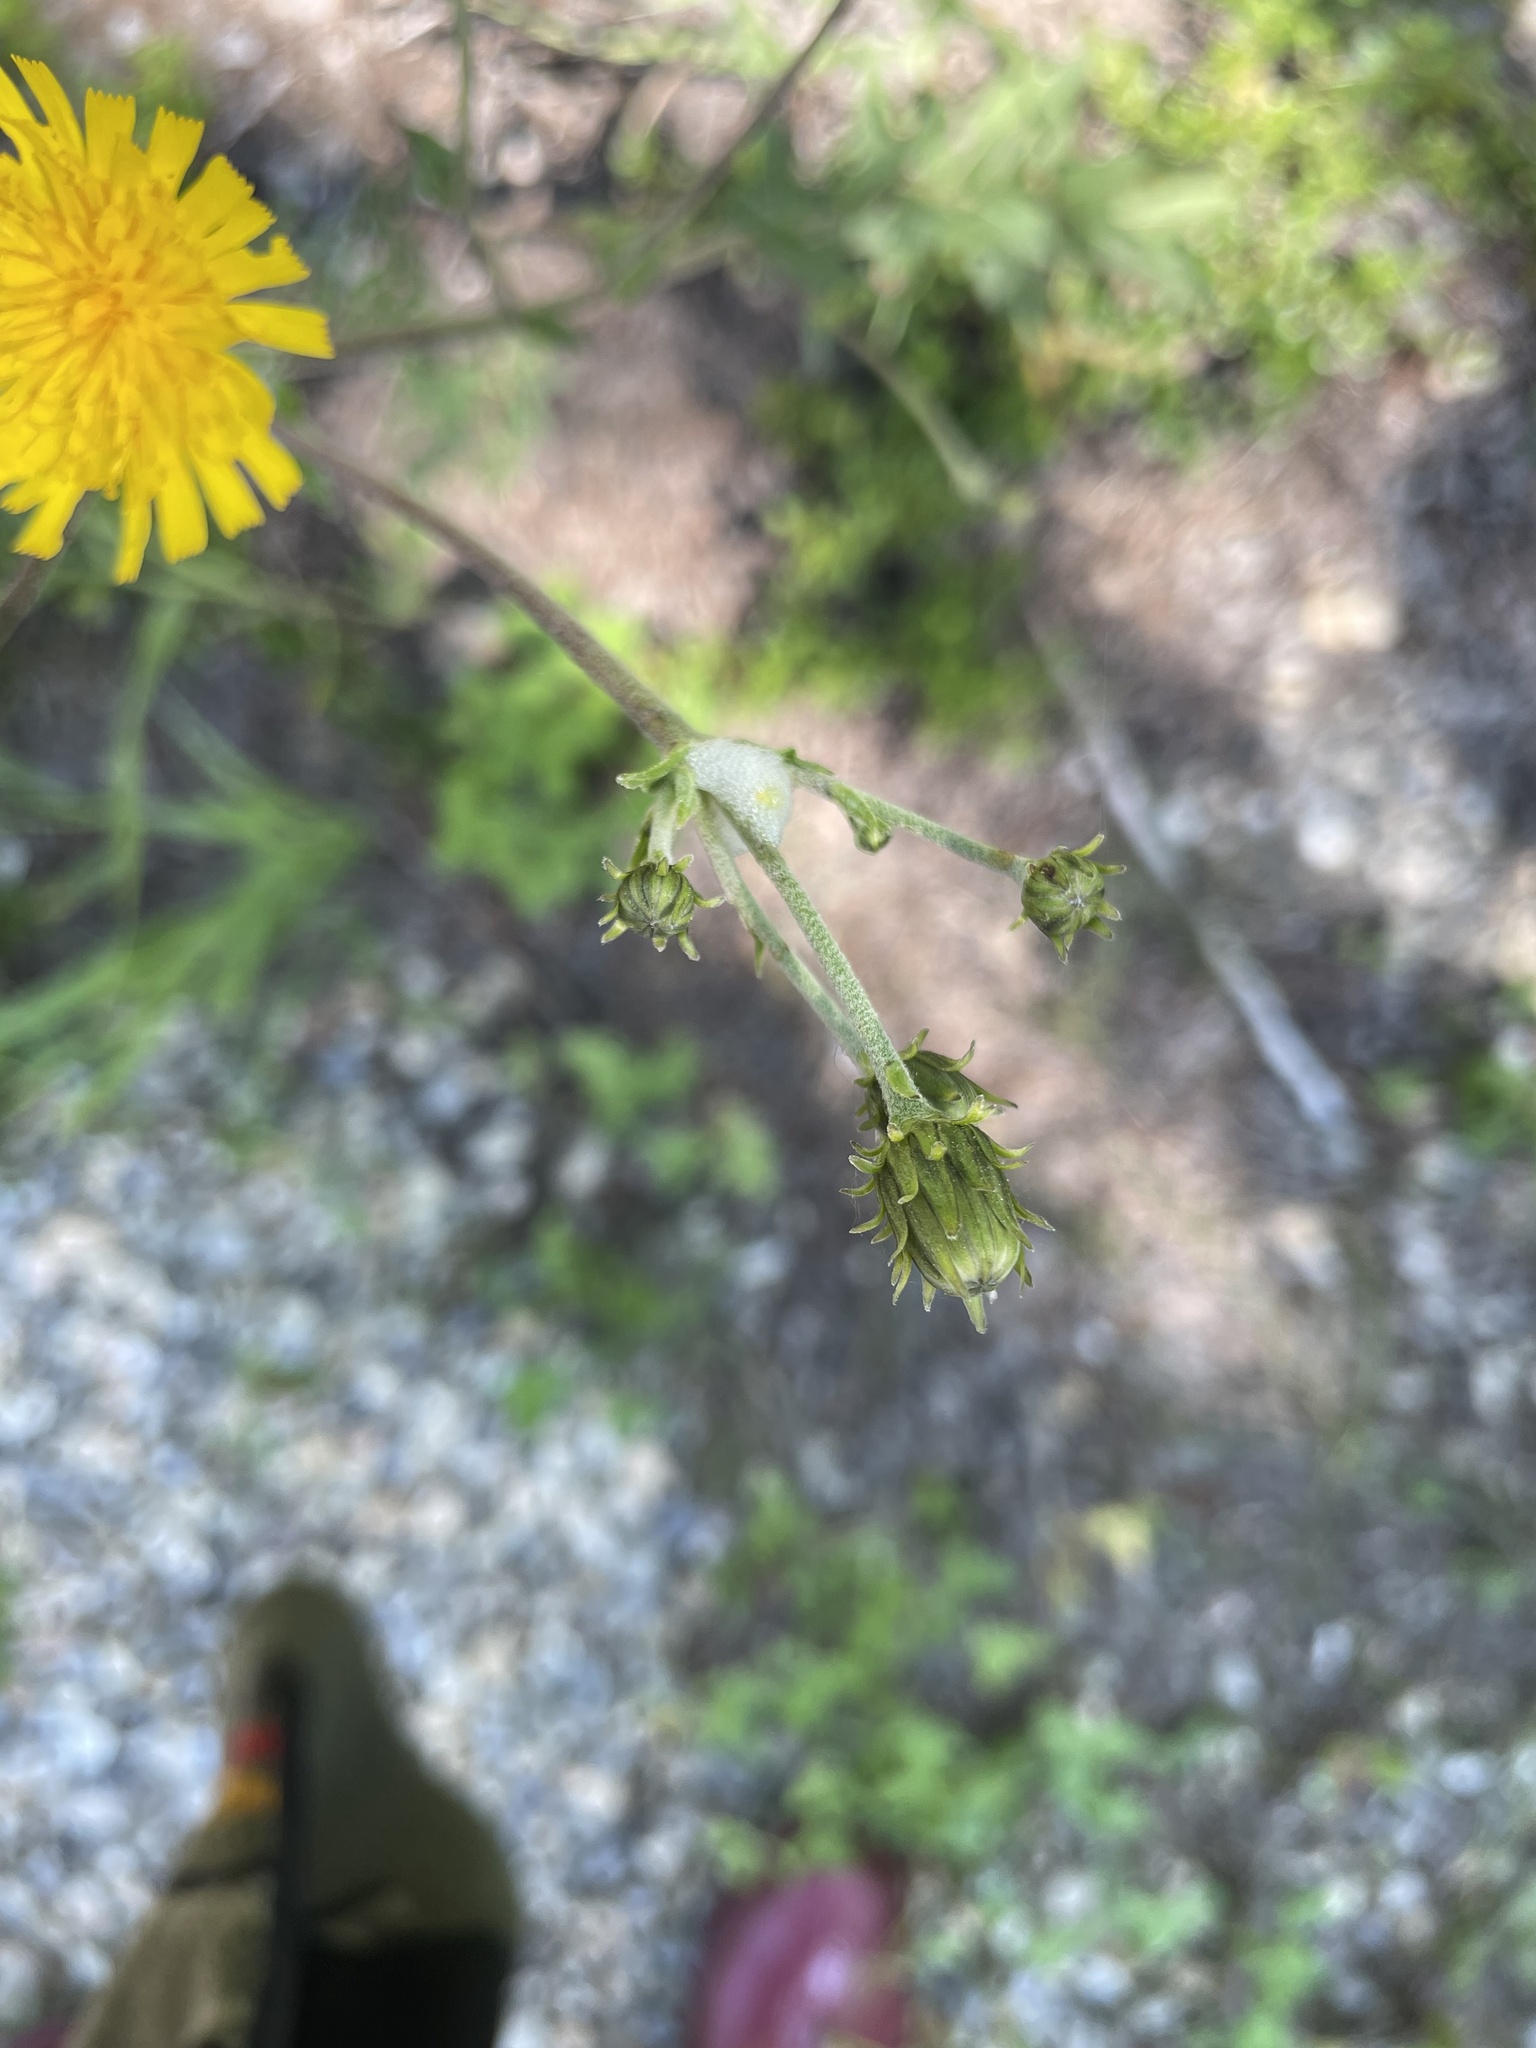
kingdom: Plantae
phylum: Tracheophyta
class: Magnoliopsida
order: Asterales
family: Asteraceae
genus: Hieracium
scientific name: Hieracium umbellatum
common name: Northern hawkweed
